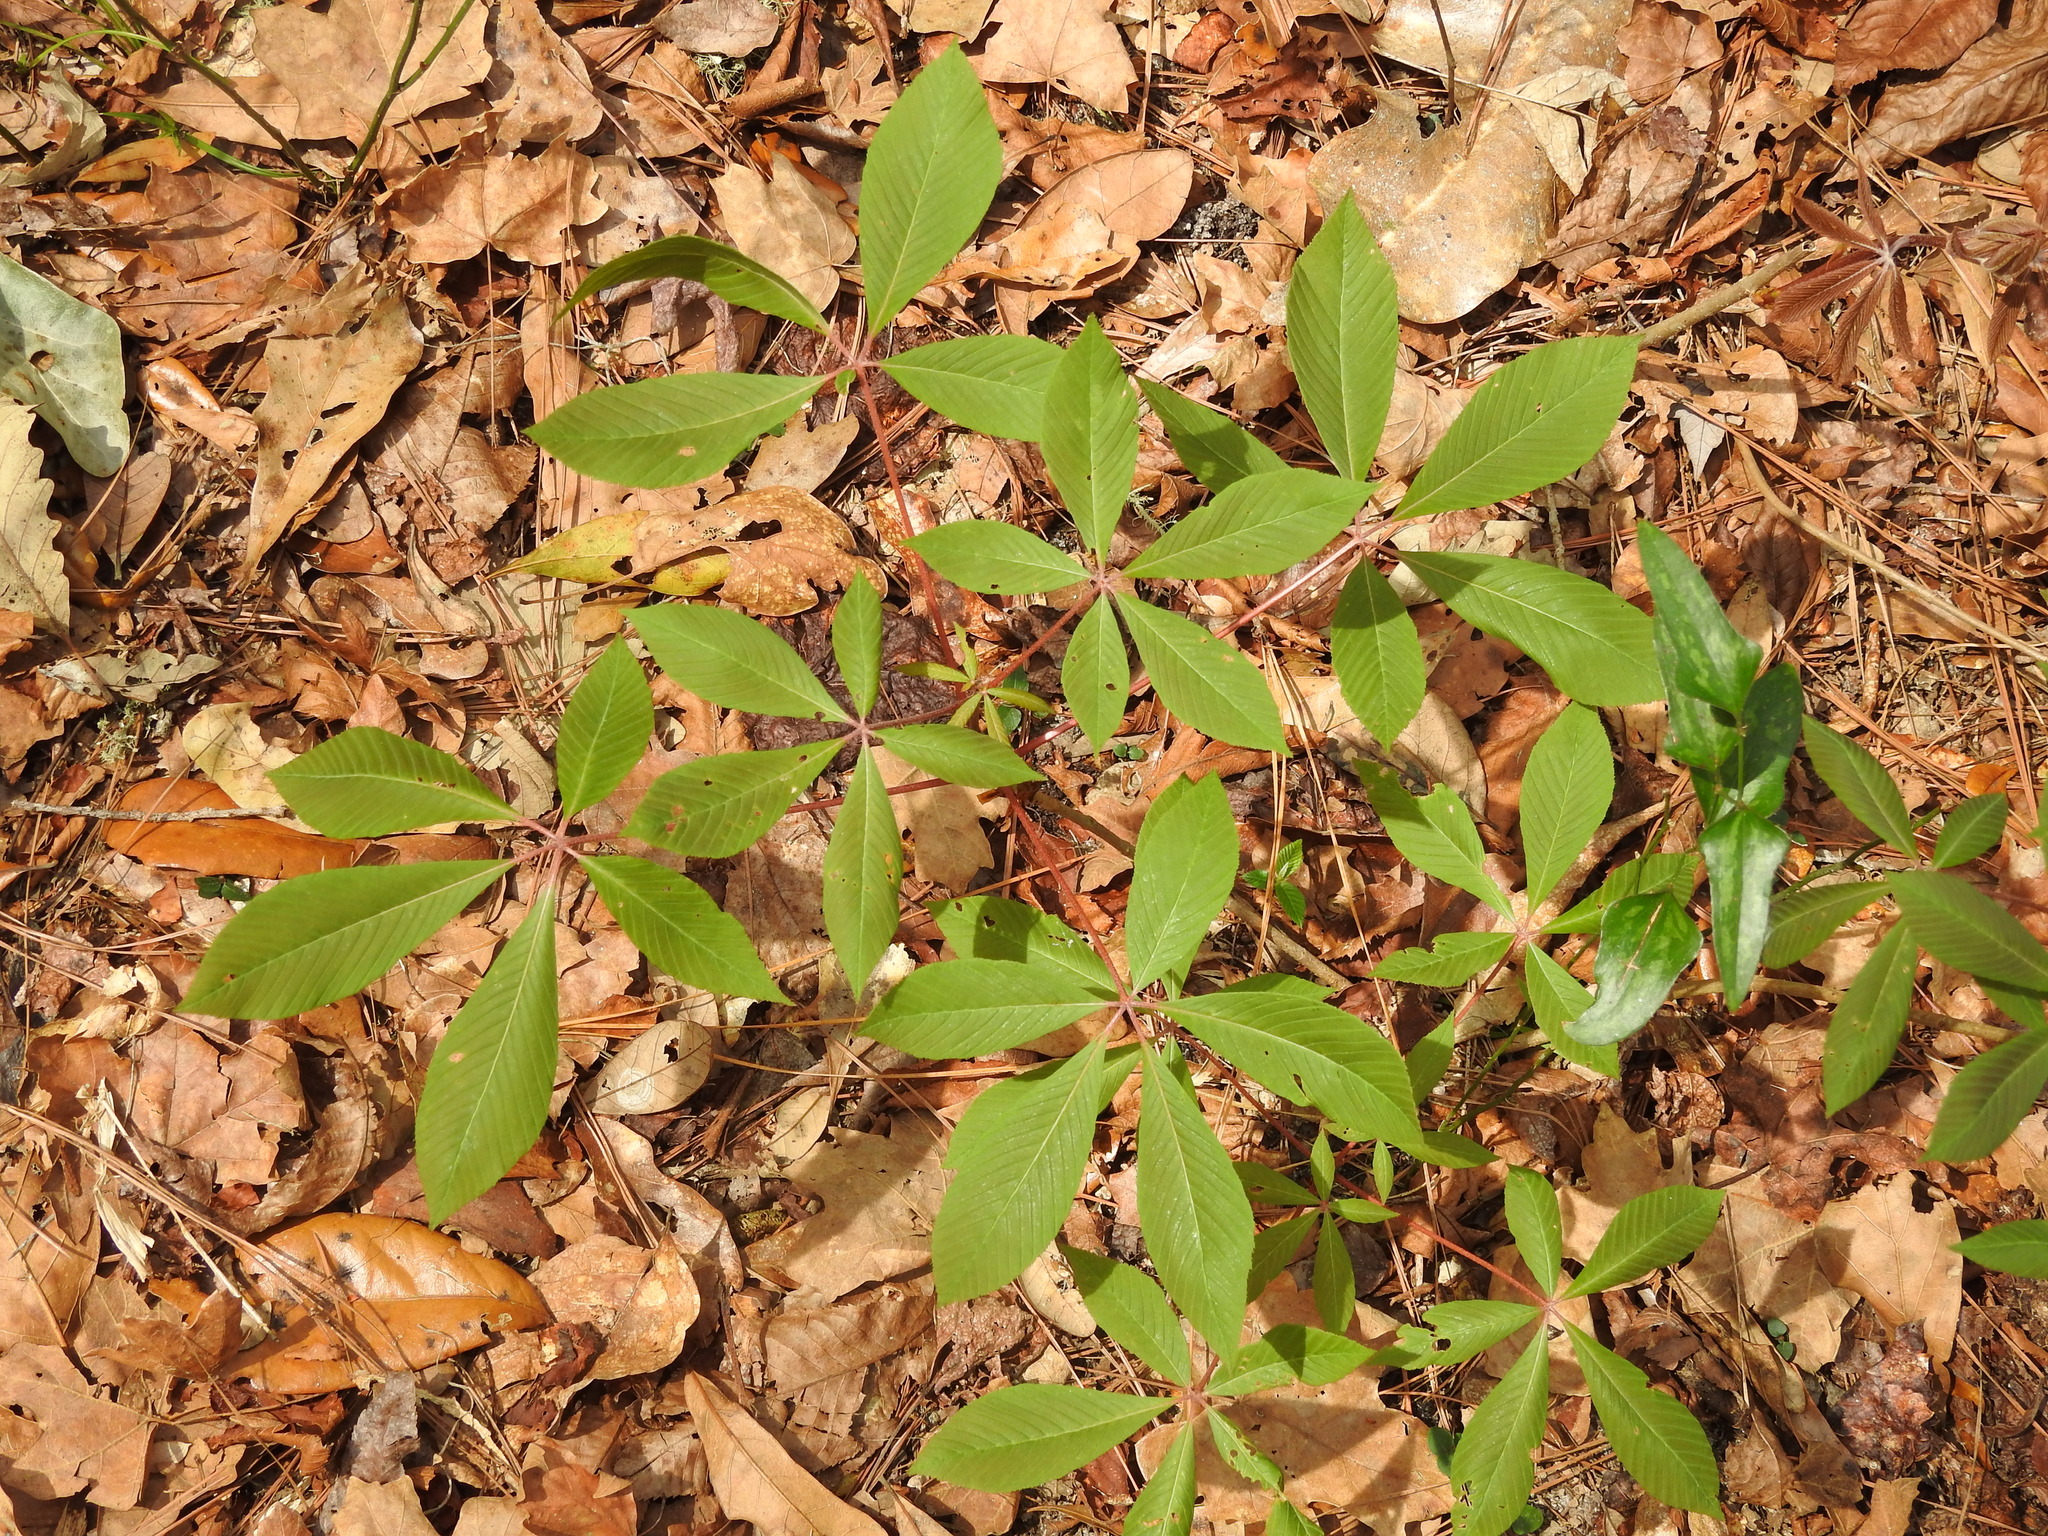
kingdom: Plantae
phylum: Tracheophyta
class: Magnoliopsida
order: Sapindales
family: Sapindaceae
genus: Aesculus
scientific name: Aesculus pavia
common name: Red buckeye
